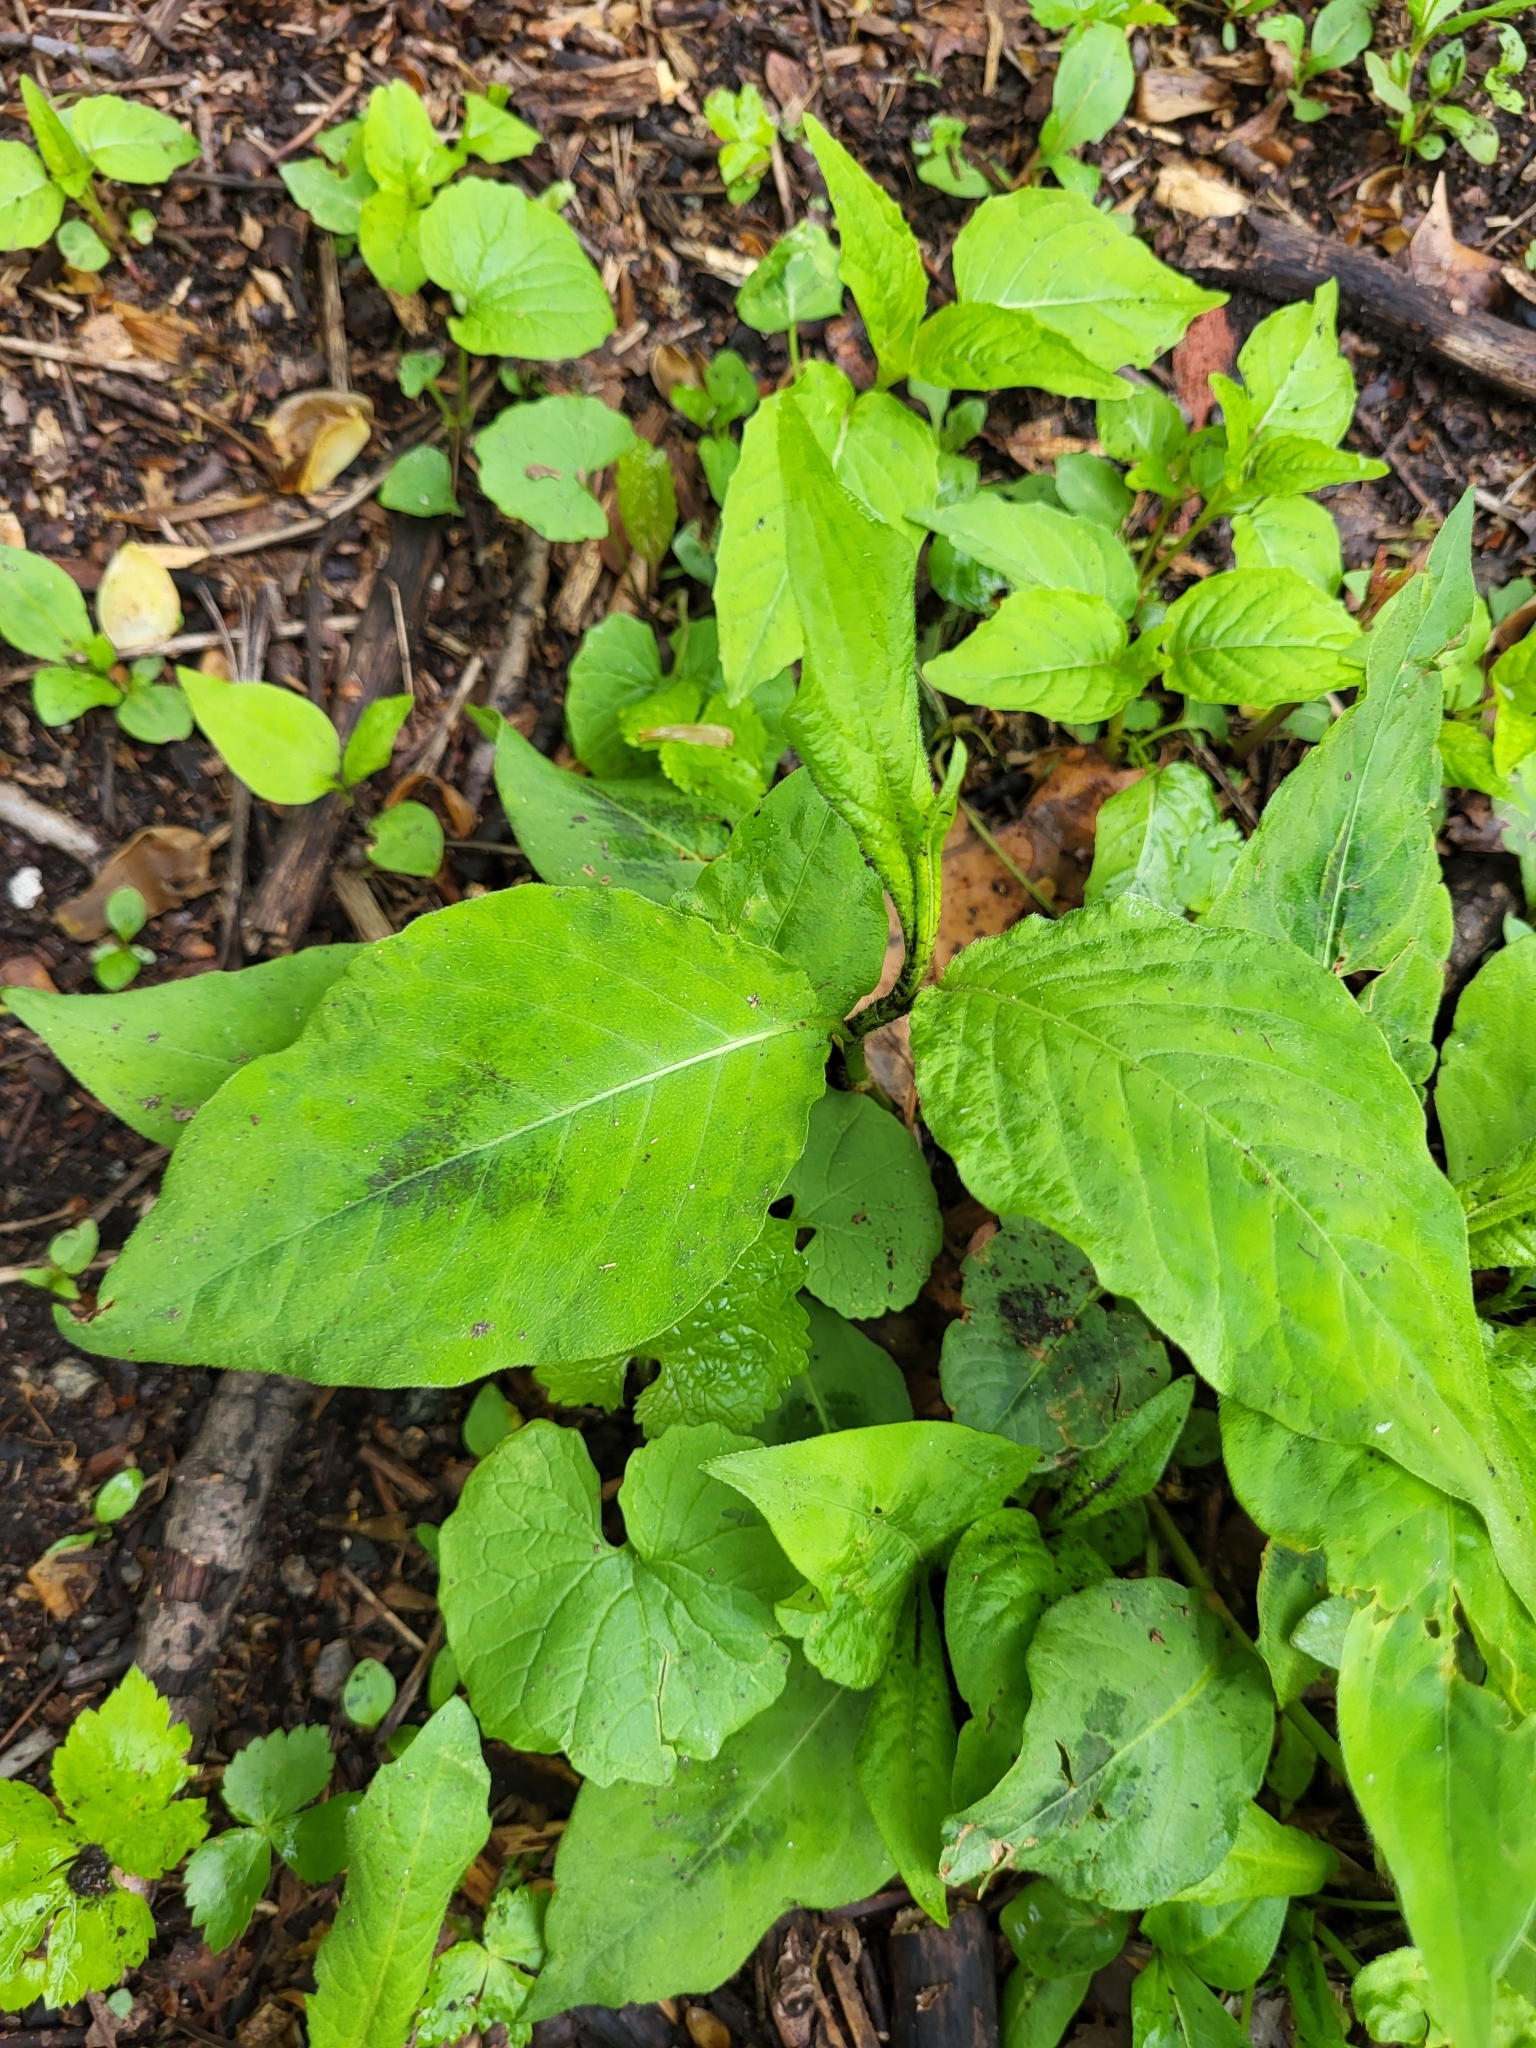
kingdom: Plantae
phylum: Tracheophyta
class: Magnoliopsida
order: Caryophyllales
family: Polygonaceae
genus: Persicaria
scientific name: Persicaria virginiana
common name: Jumpseed
